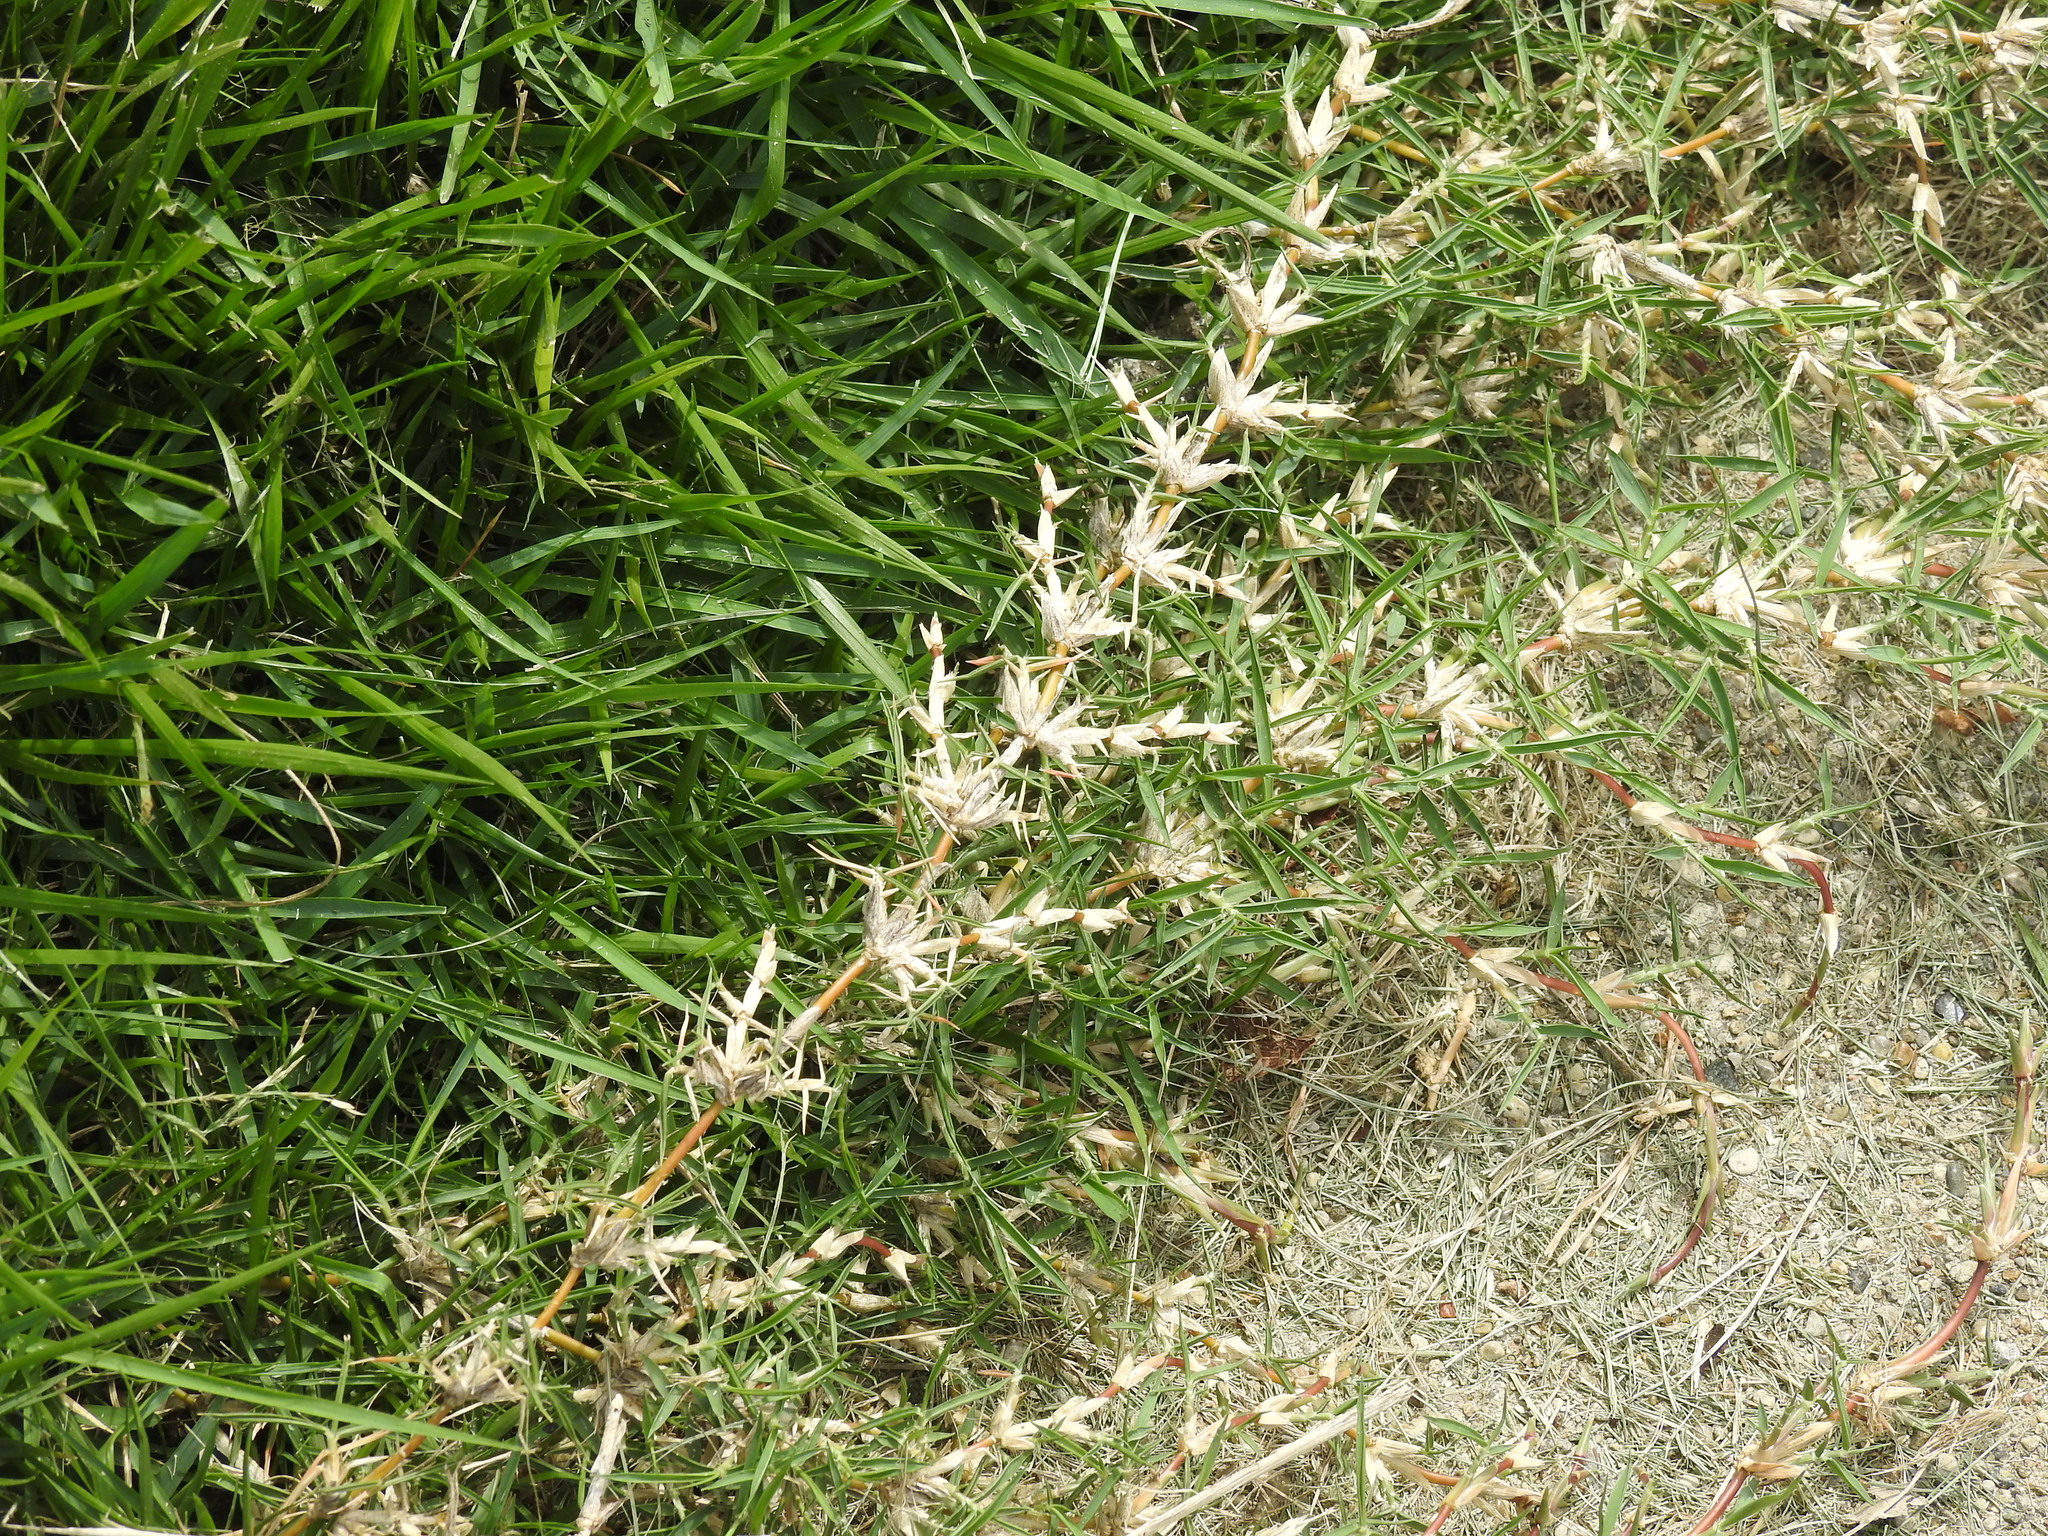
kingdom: Plantae
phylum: Tracheophyta
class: Liliopsida
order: Poales
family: Poaceae
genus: Cynodon
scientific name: Cynodon dactylon
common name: Bermuda grass
